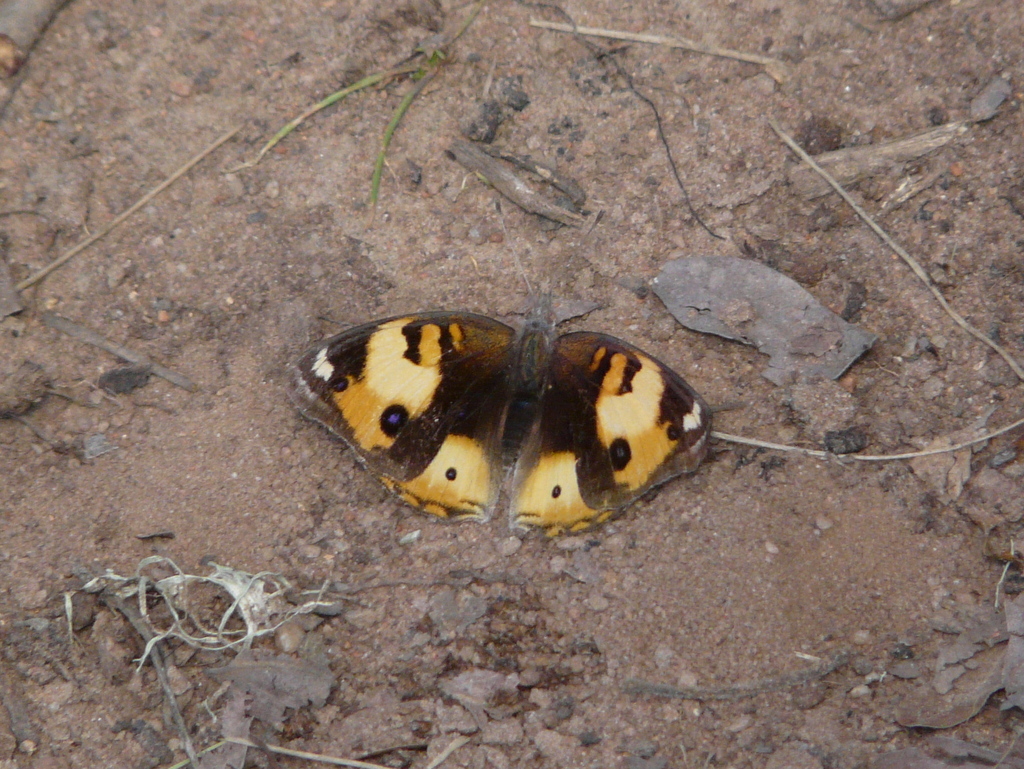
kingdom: Animalia
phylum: Arthropoda
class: Insecta
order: Lepidoptera
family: Nymphalidae
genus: Junonia
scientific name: Junonia hierta
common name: Yellow pansy
